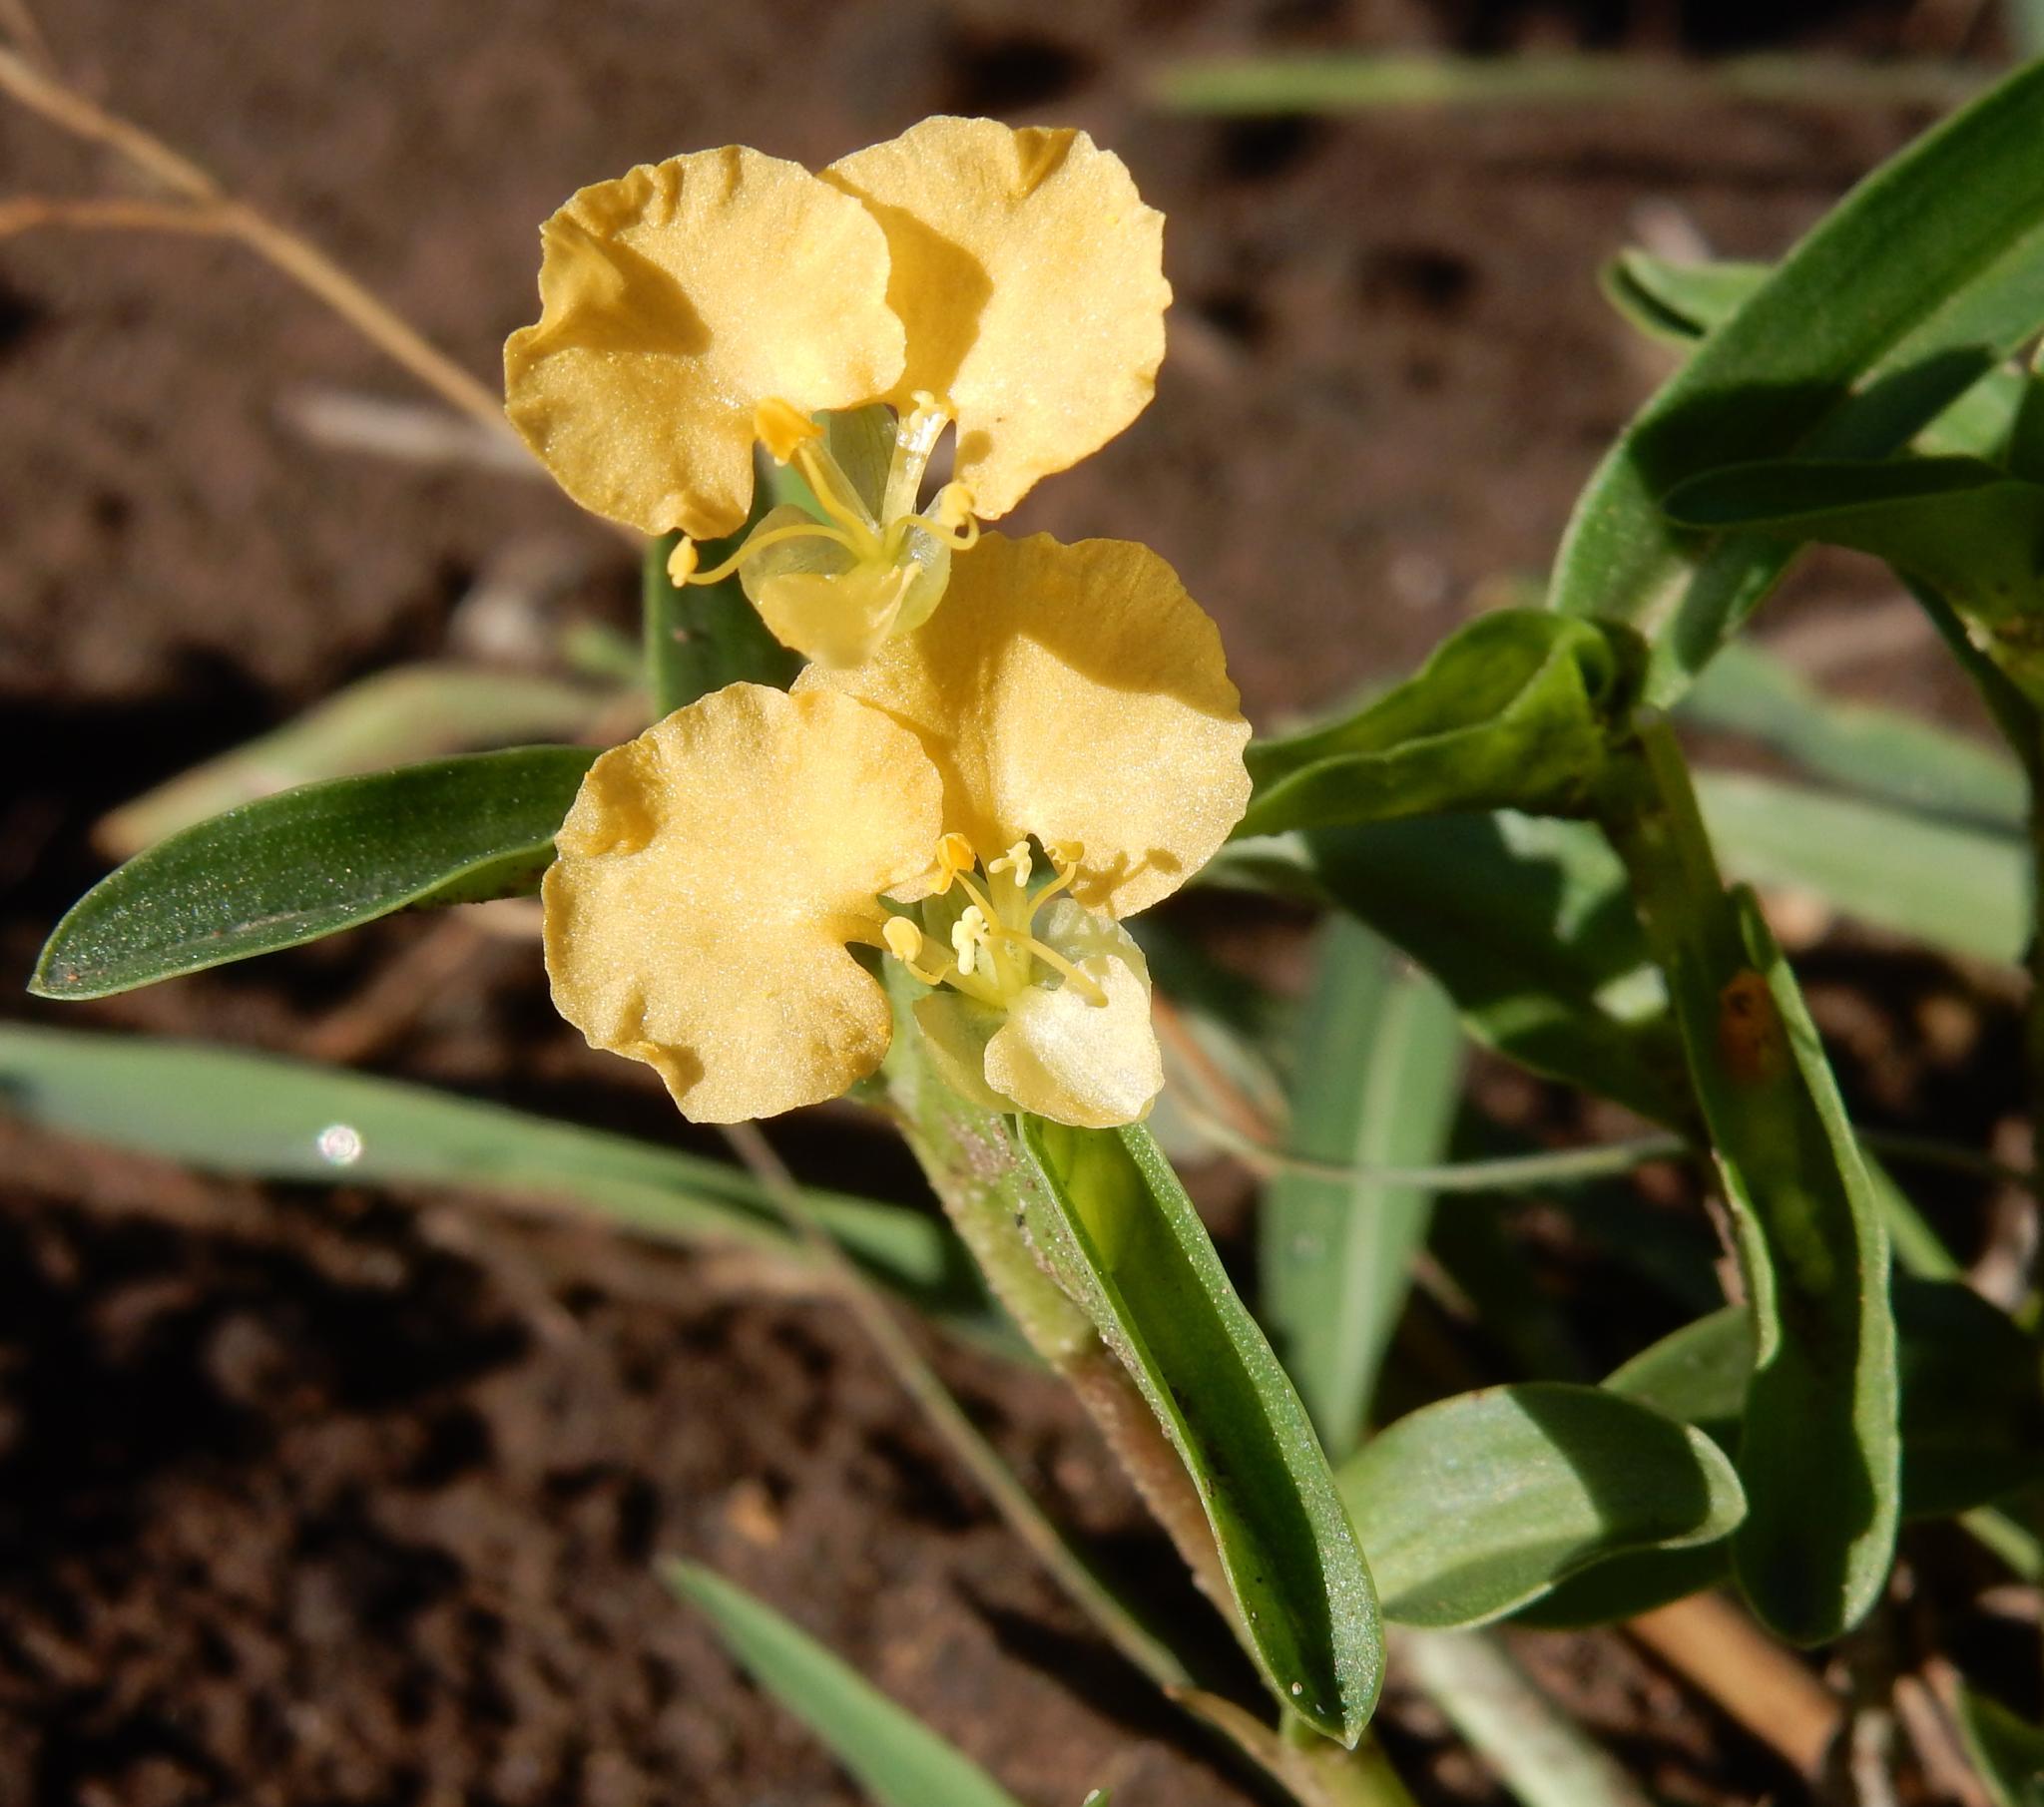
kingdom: Plantae
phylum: Tracheophyta
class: Liliopsida
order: Commelinales
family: Commelinaceae
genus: Commelina
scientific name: Commelina africana
